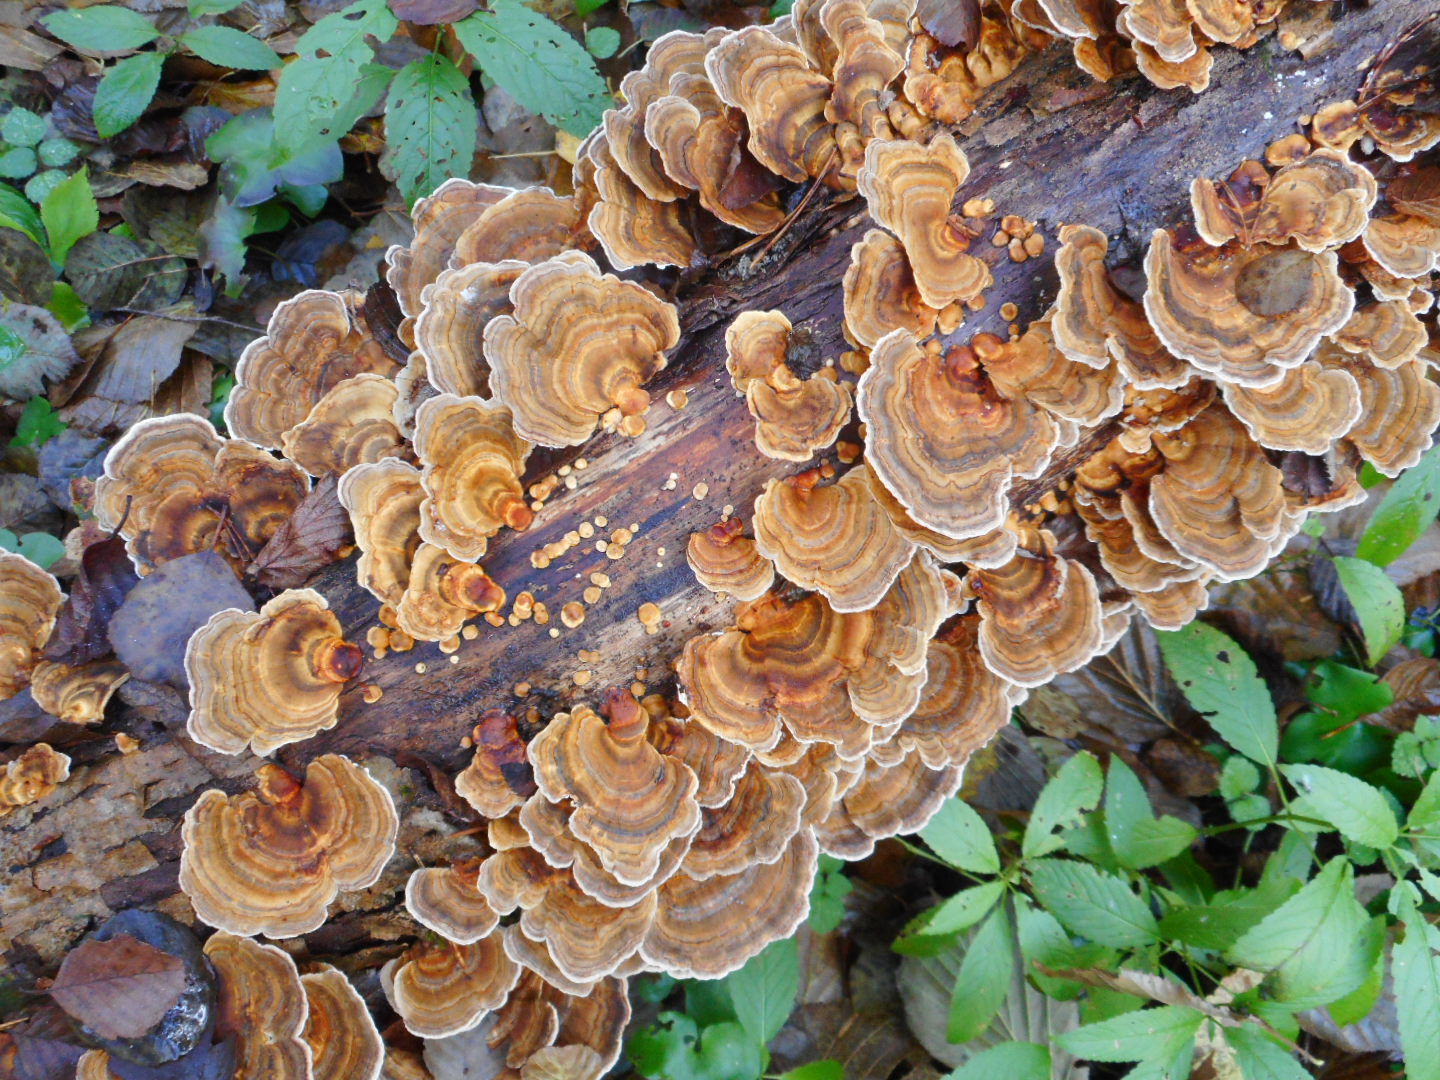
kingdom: Fungi
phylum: Basidiomycota
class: Agaricomycetes
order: Polyporales
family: Polyporaceae
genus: Trametes
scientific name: Trametes ochracea
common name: Ochre bracket
